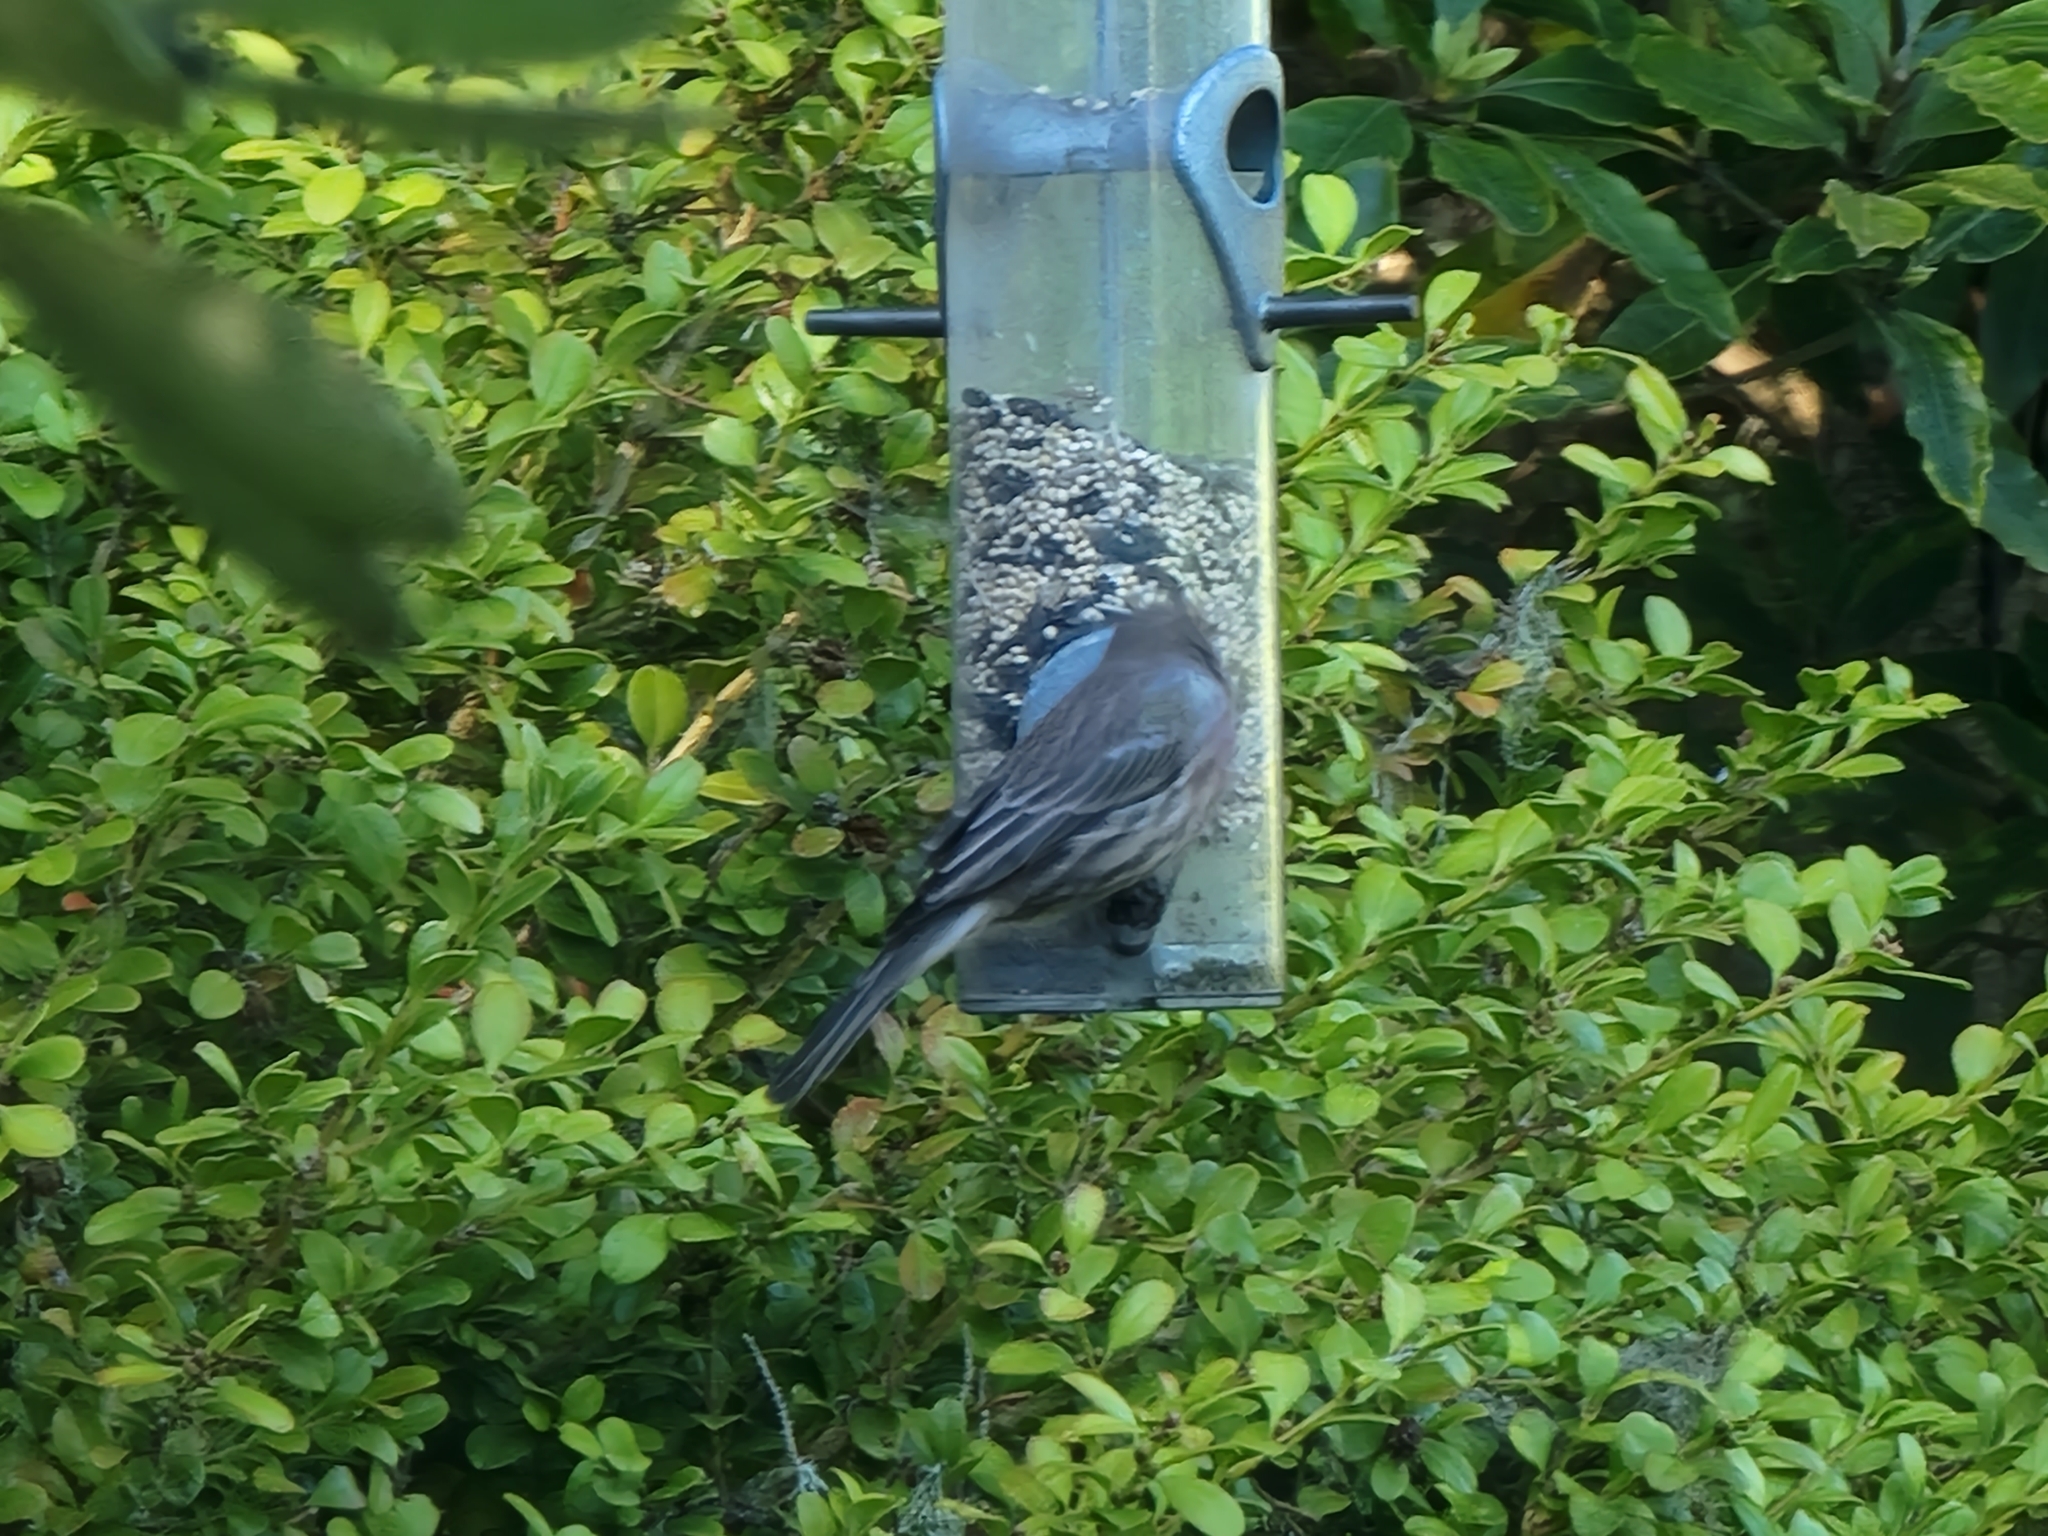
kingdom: Animalia
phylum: Chordata
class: Aves
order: Passeriformes
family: Fringillidae
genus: Haemorhous
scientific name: Haemorhous mexicanus
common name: House finch
